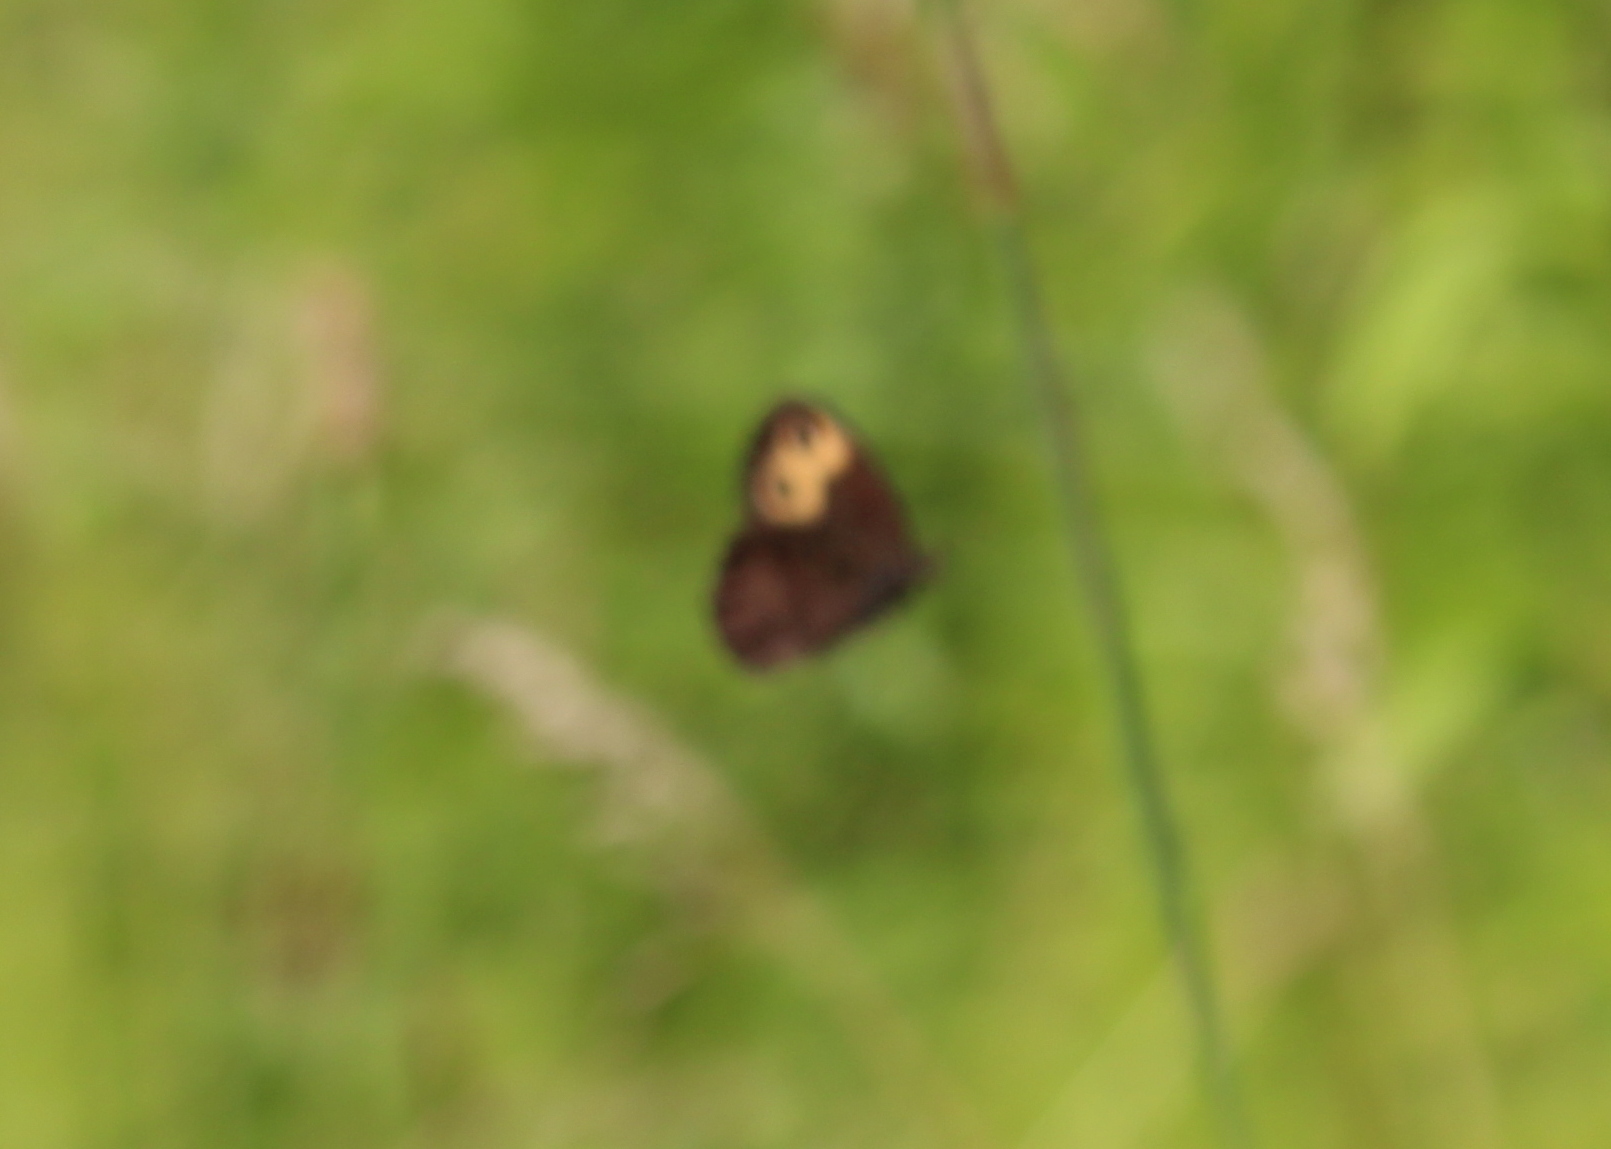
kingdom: Animalia
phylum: Arthropoda
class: Insecta
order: Lepidoptera
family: Nymphalidae
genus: Cercyonis
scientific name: Cercyonis pegala
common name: Common wood-nymph
